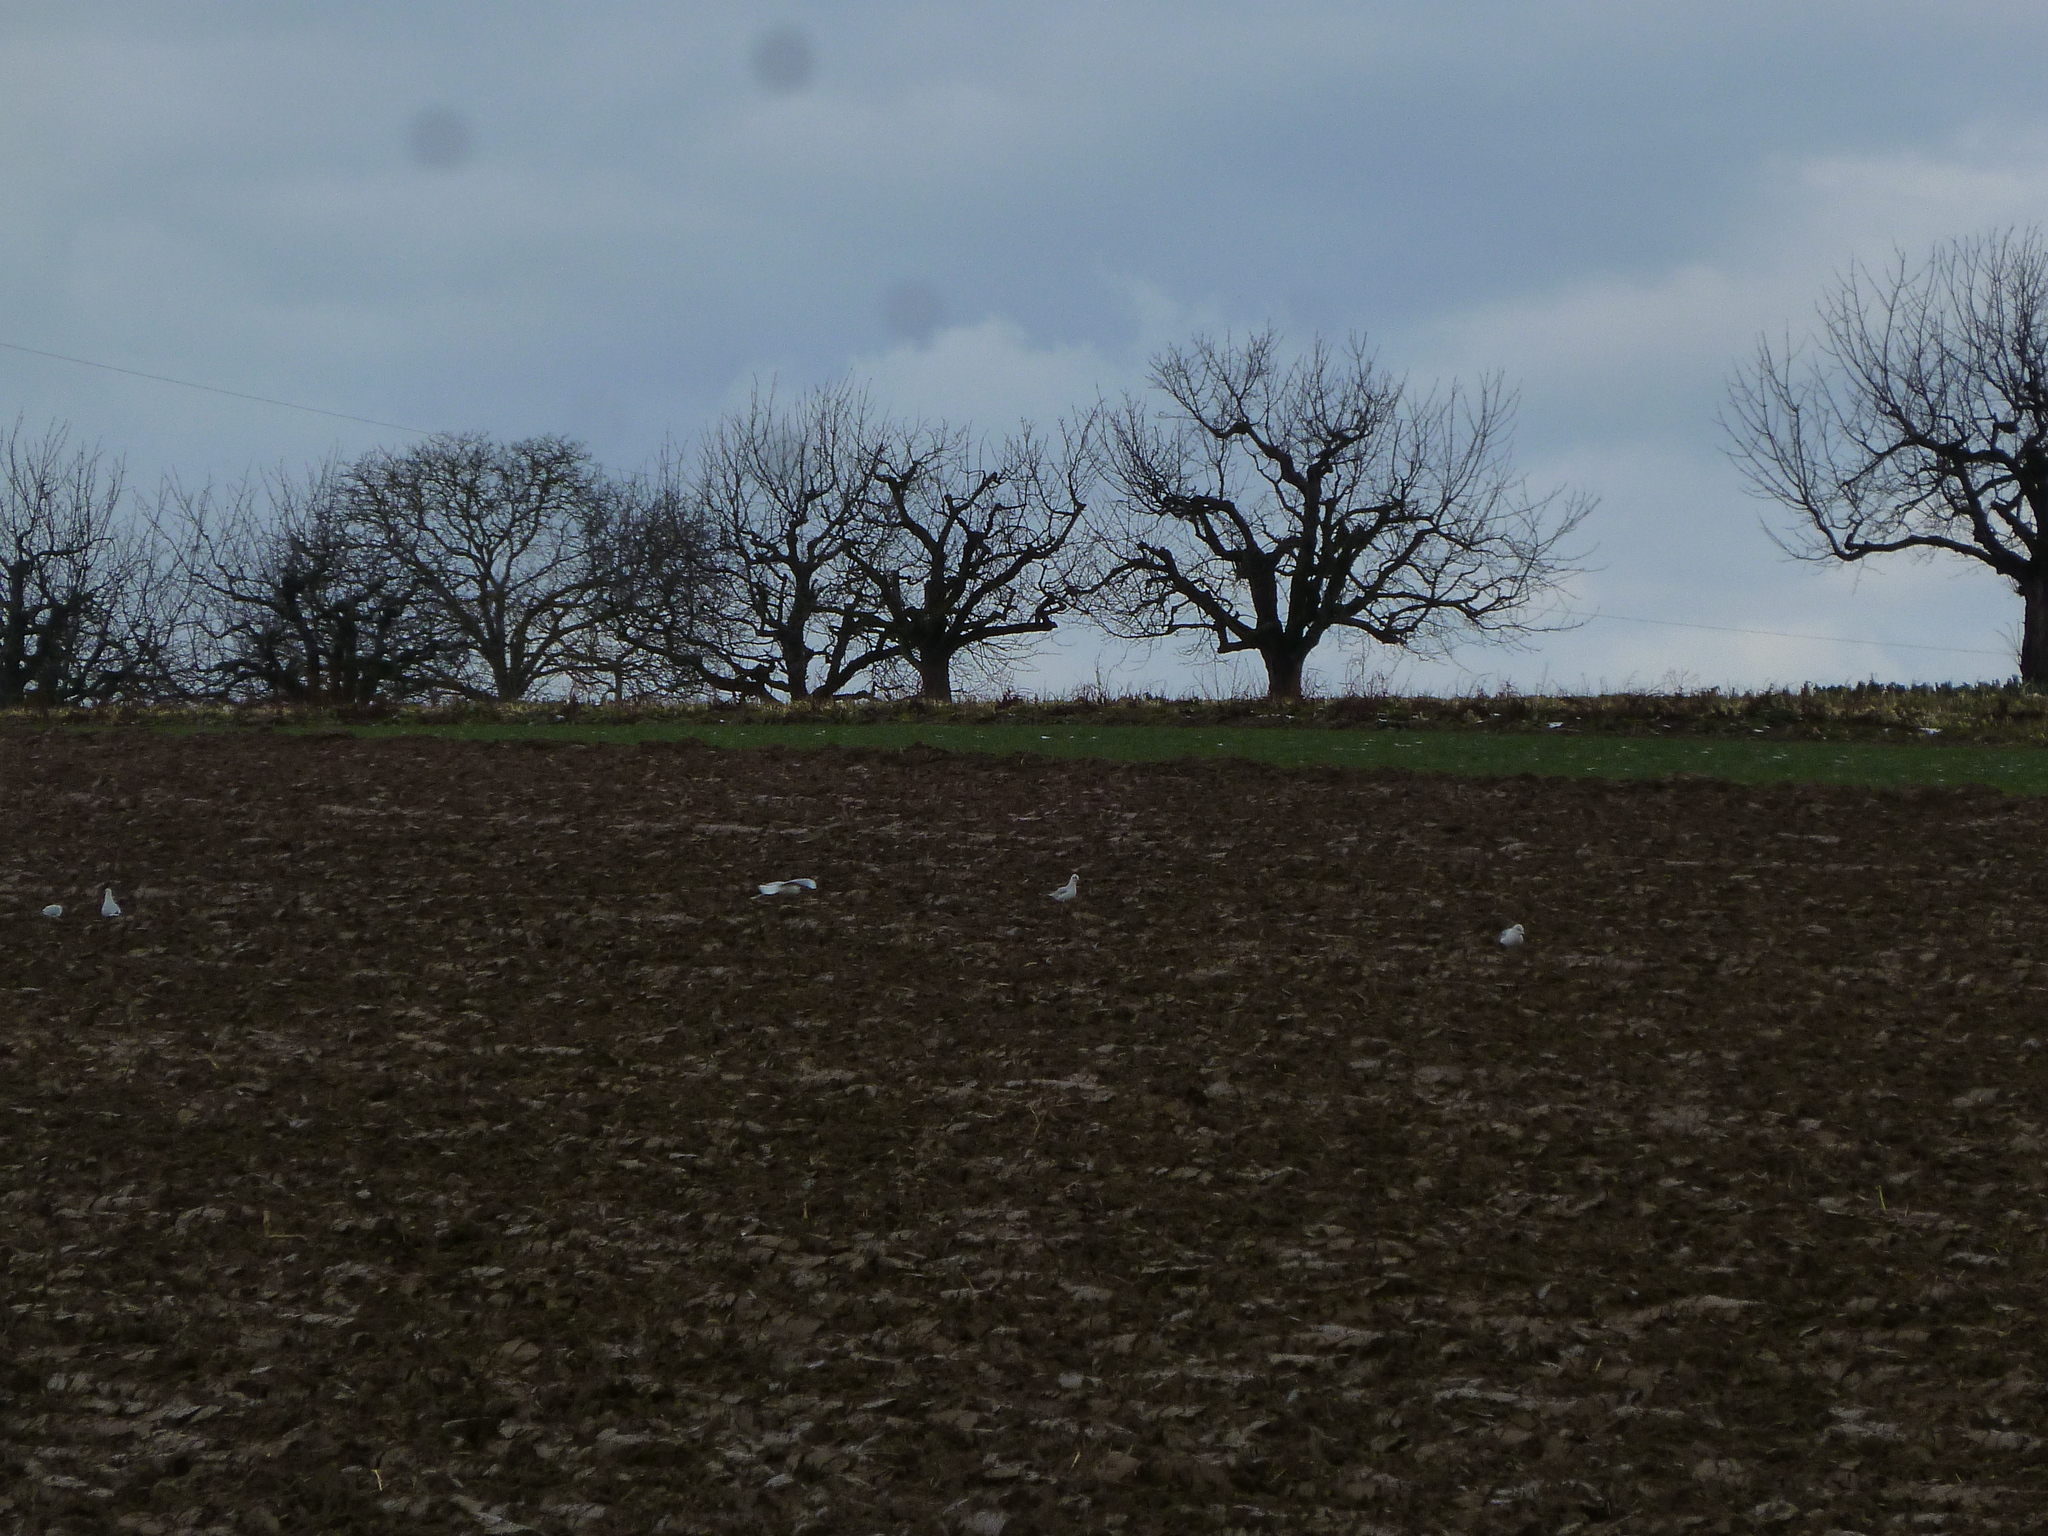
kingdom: Animalia
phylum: Chordata
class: Aves
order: Charadriiformes
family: Laridae
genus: Chroicocephalus
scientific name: Chroicocephalus ridibundus
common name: Black-headed gull
